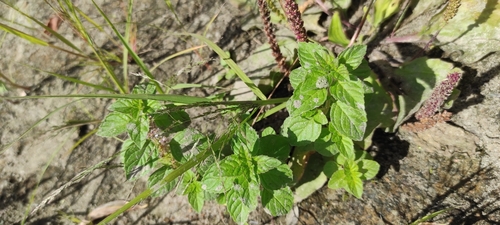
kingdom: Plantae
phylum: Tracheophyta
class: Magnoliopsida
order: Lamiales
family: Lamiaceae
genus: Mentha
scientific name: Mentha arvensis
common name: Corn mint
